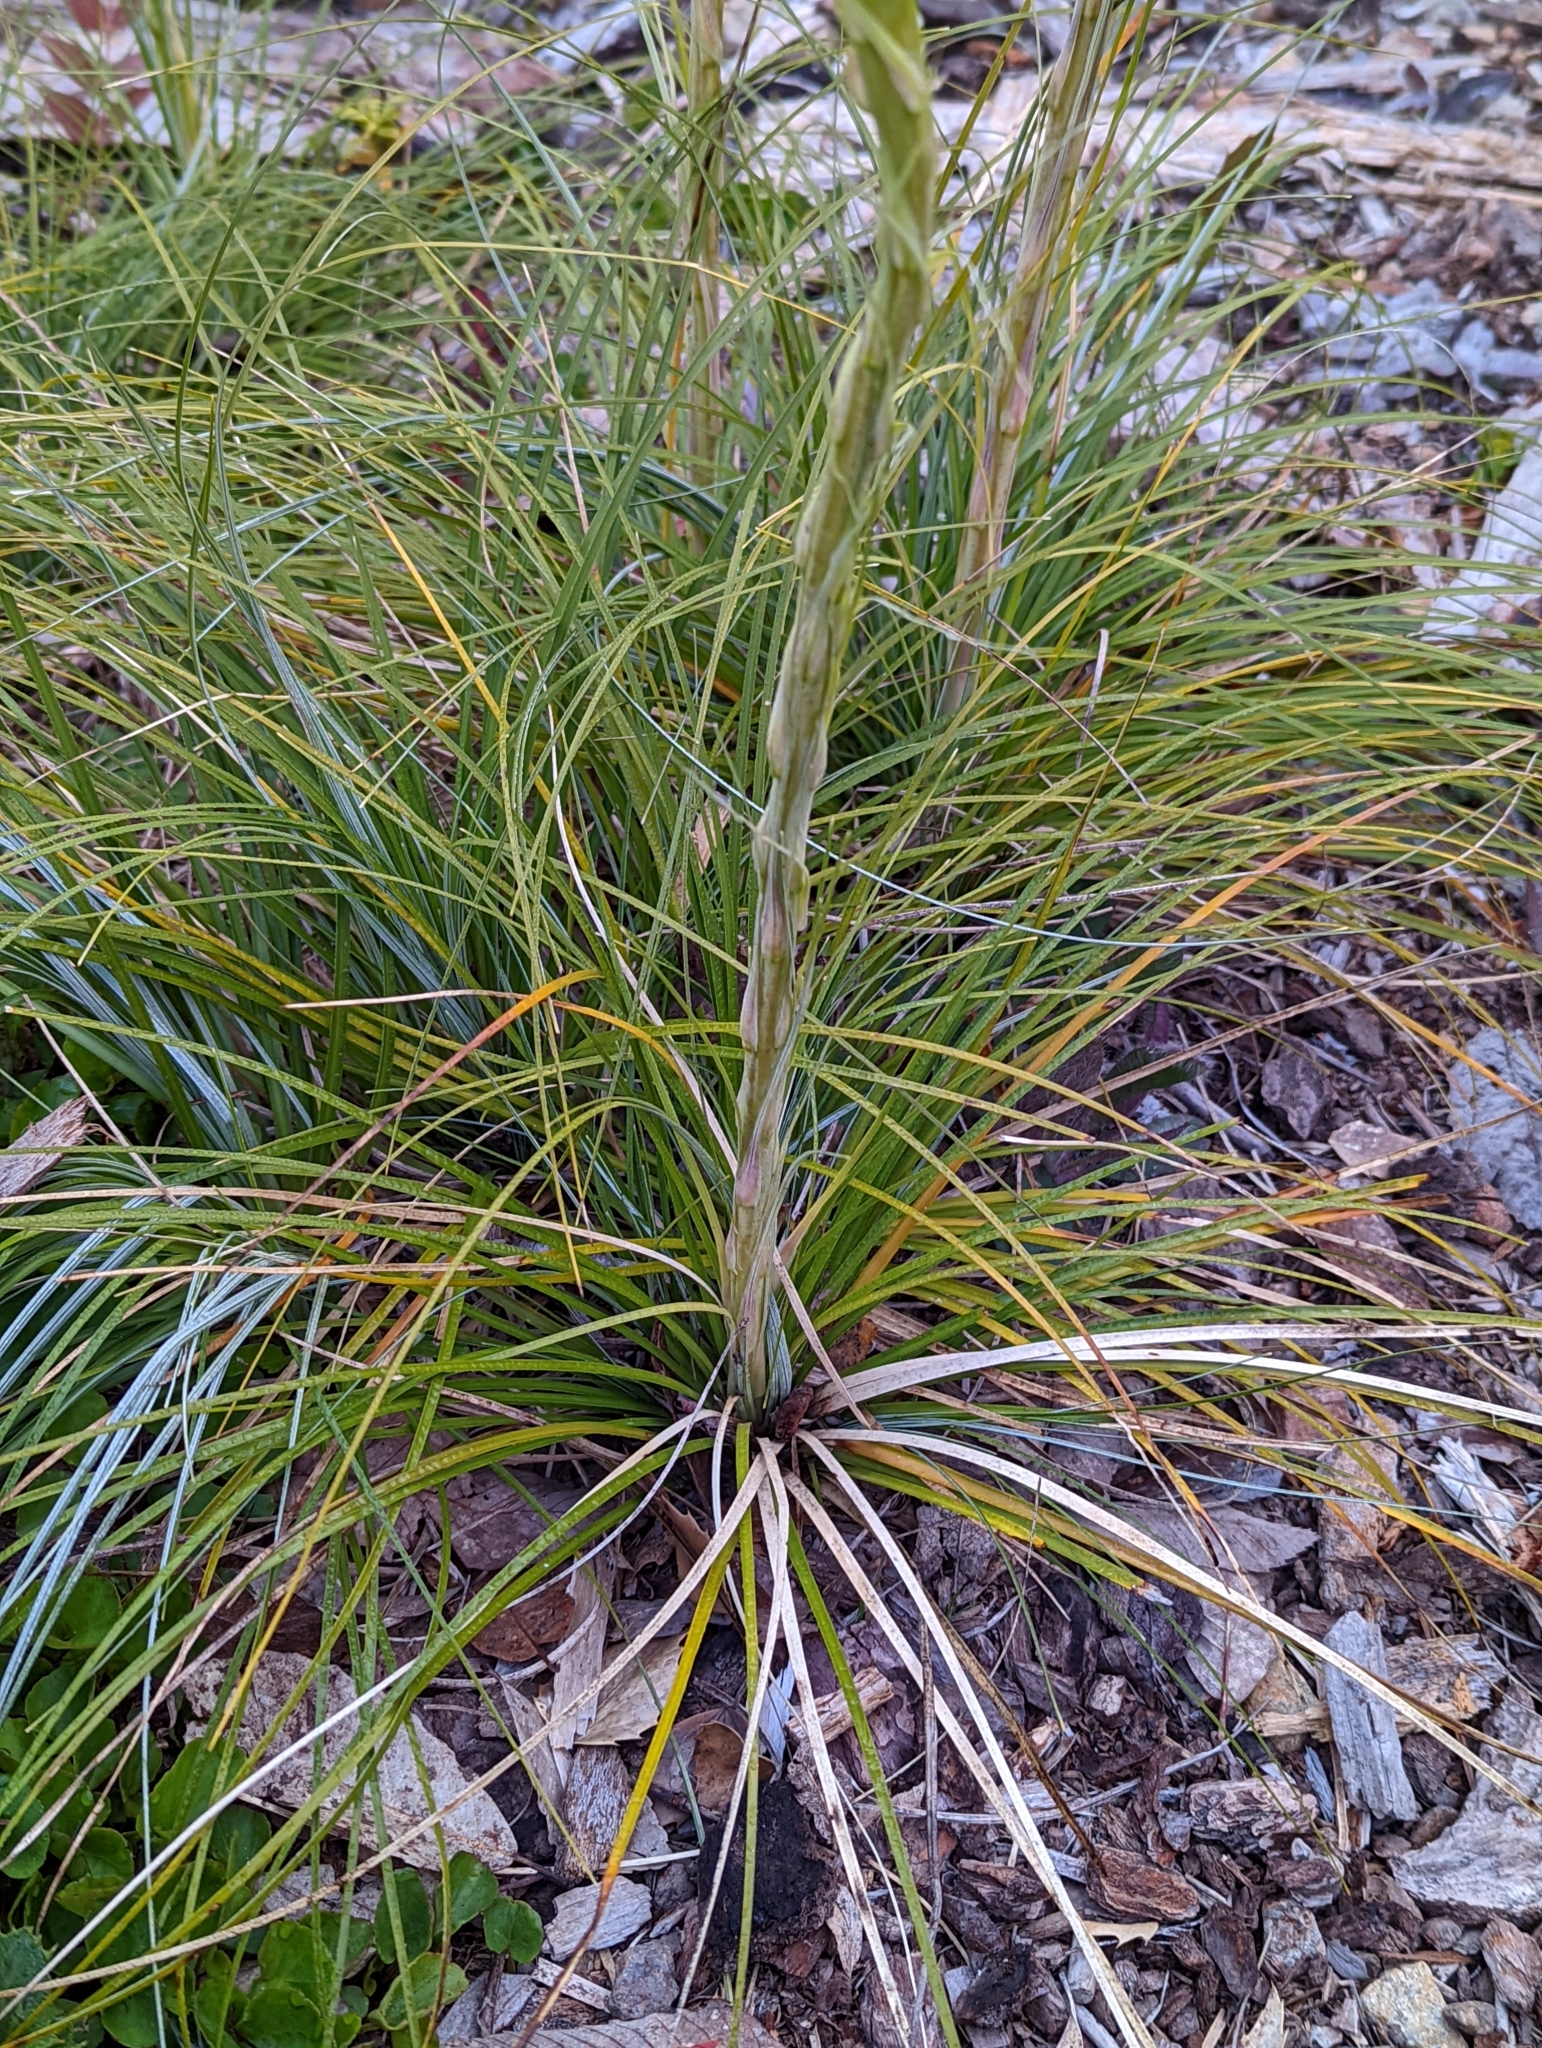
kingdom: Plantae
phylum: Tracheophyta
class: Liliopsida
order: Liliales
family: Melanthiaceae
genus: Xerophyllum
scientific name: Xerophyllum tenax
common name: Bear-grass
